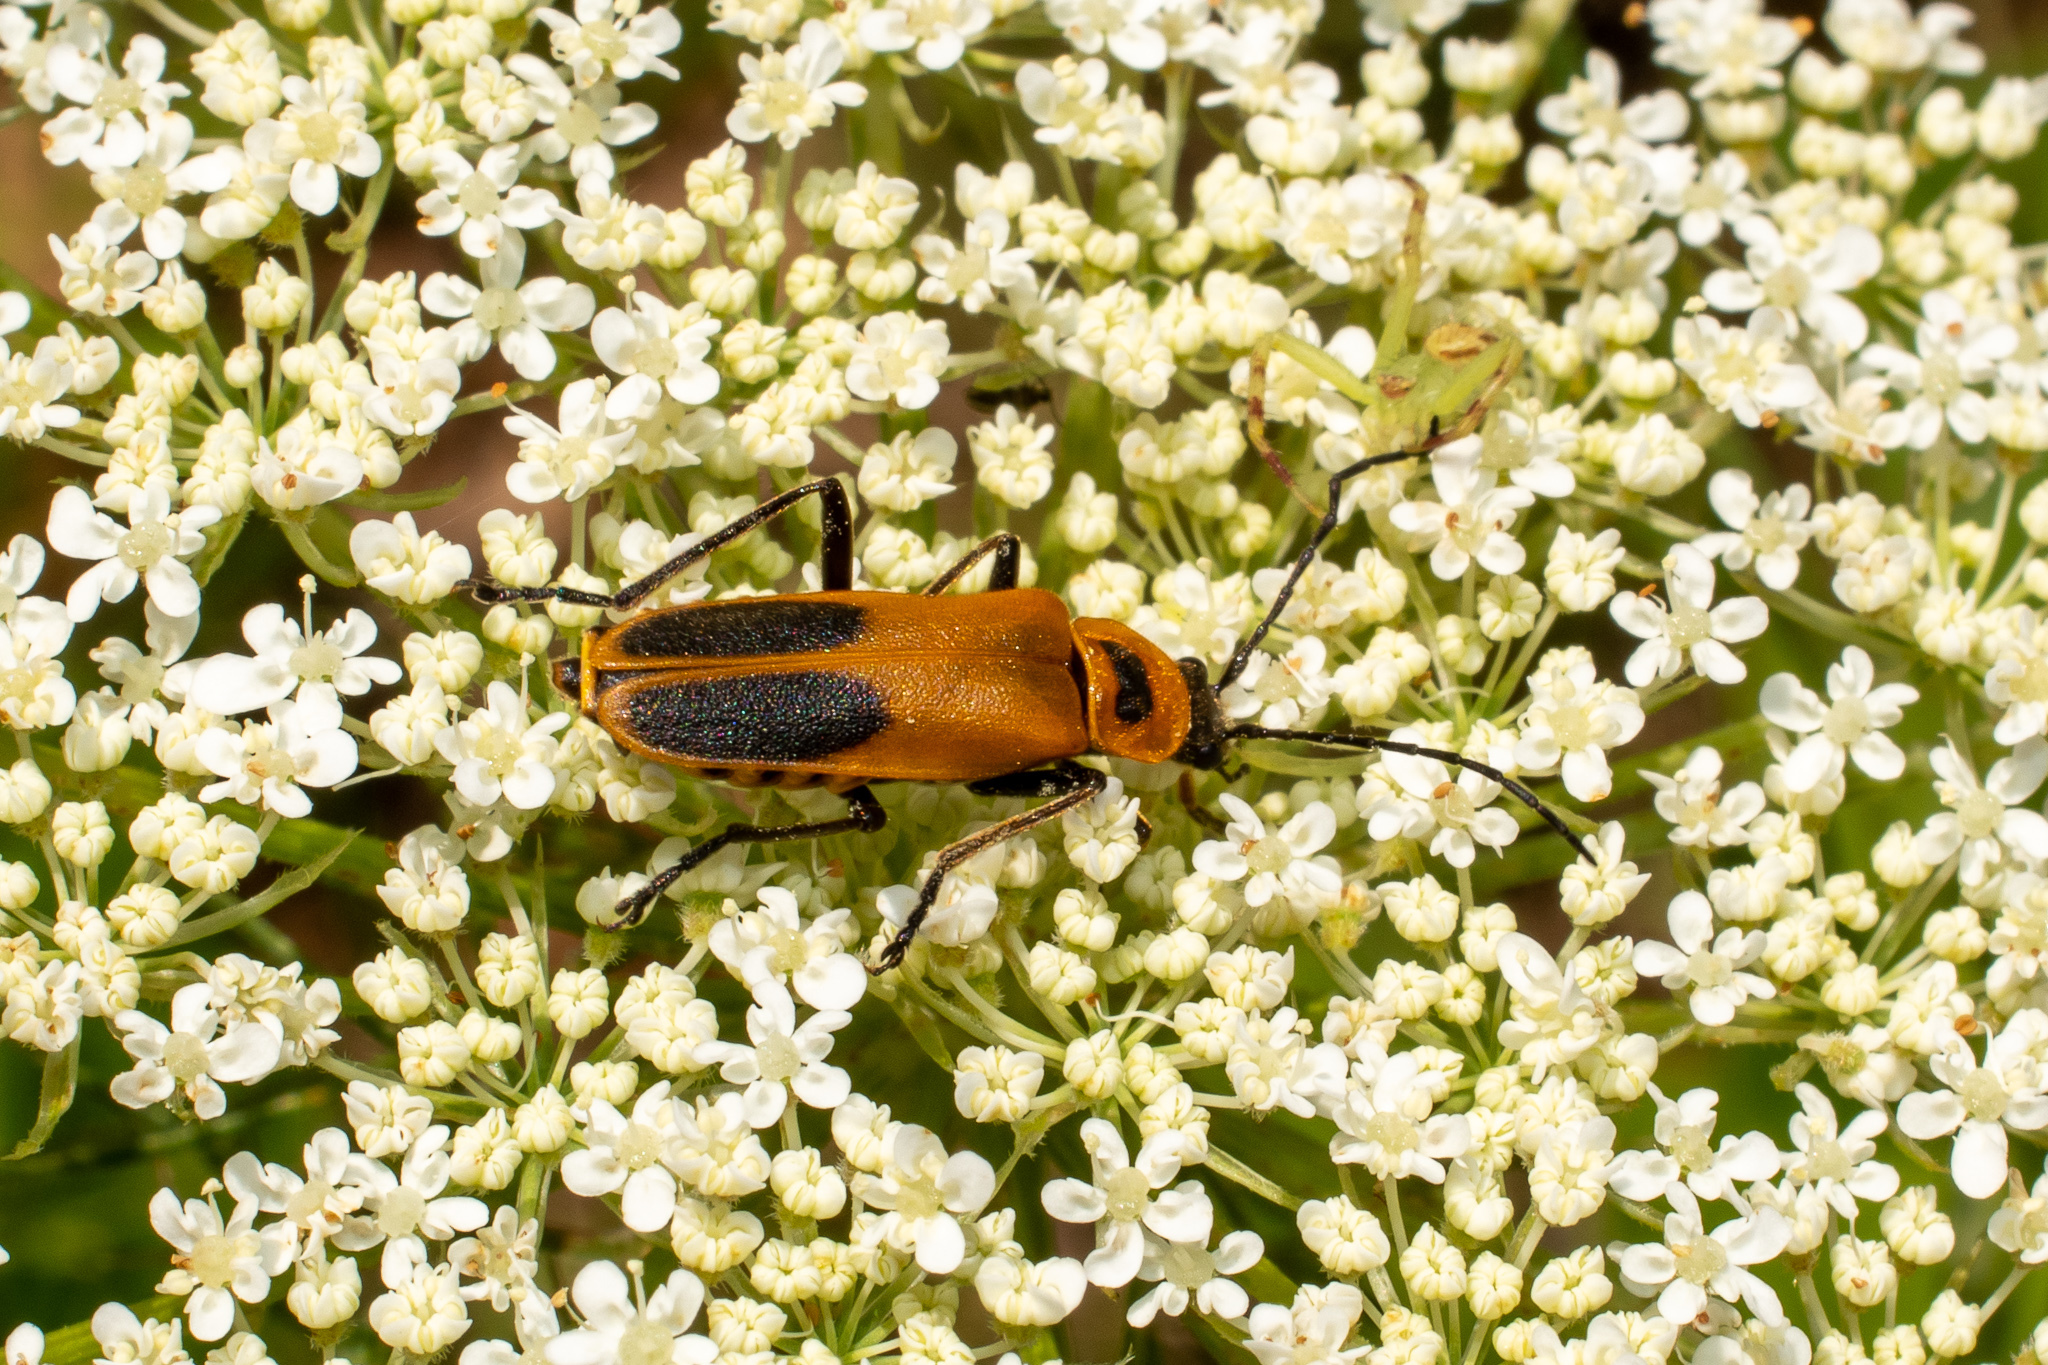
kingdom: Animalia
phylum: Arthropoda
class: Insecta
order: Coleoptera
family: Cantharidae
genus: Chauliognathus
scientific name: Chauliognathus pensylvanicus
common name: Goldenrod soldier beetle
